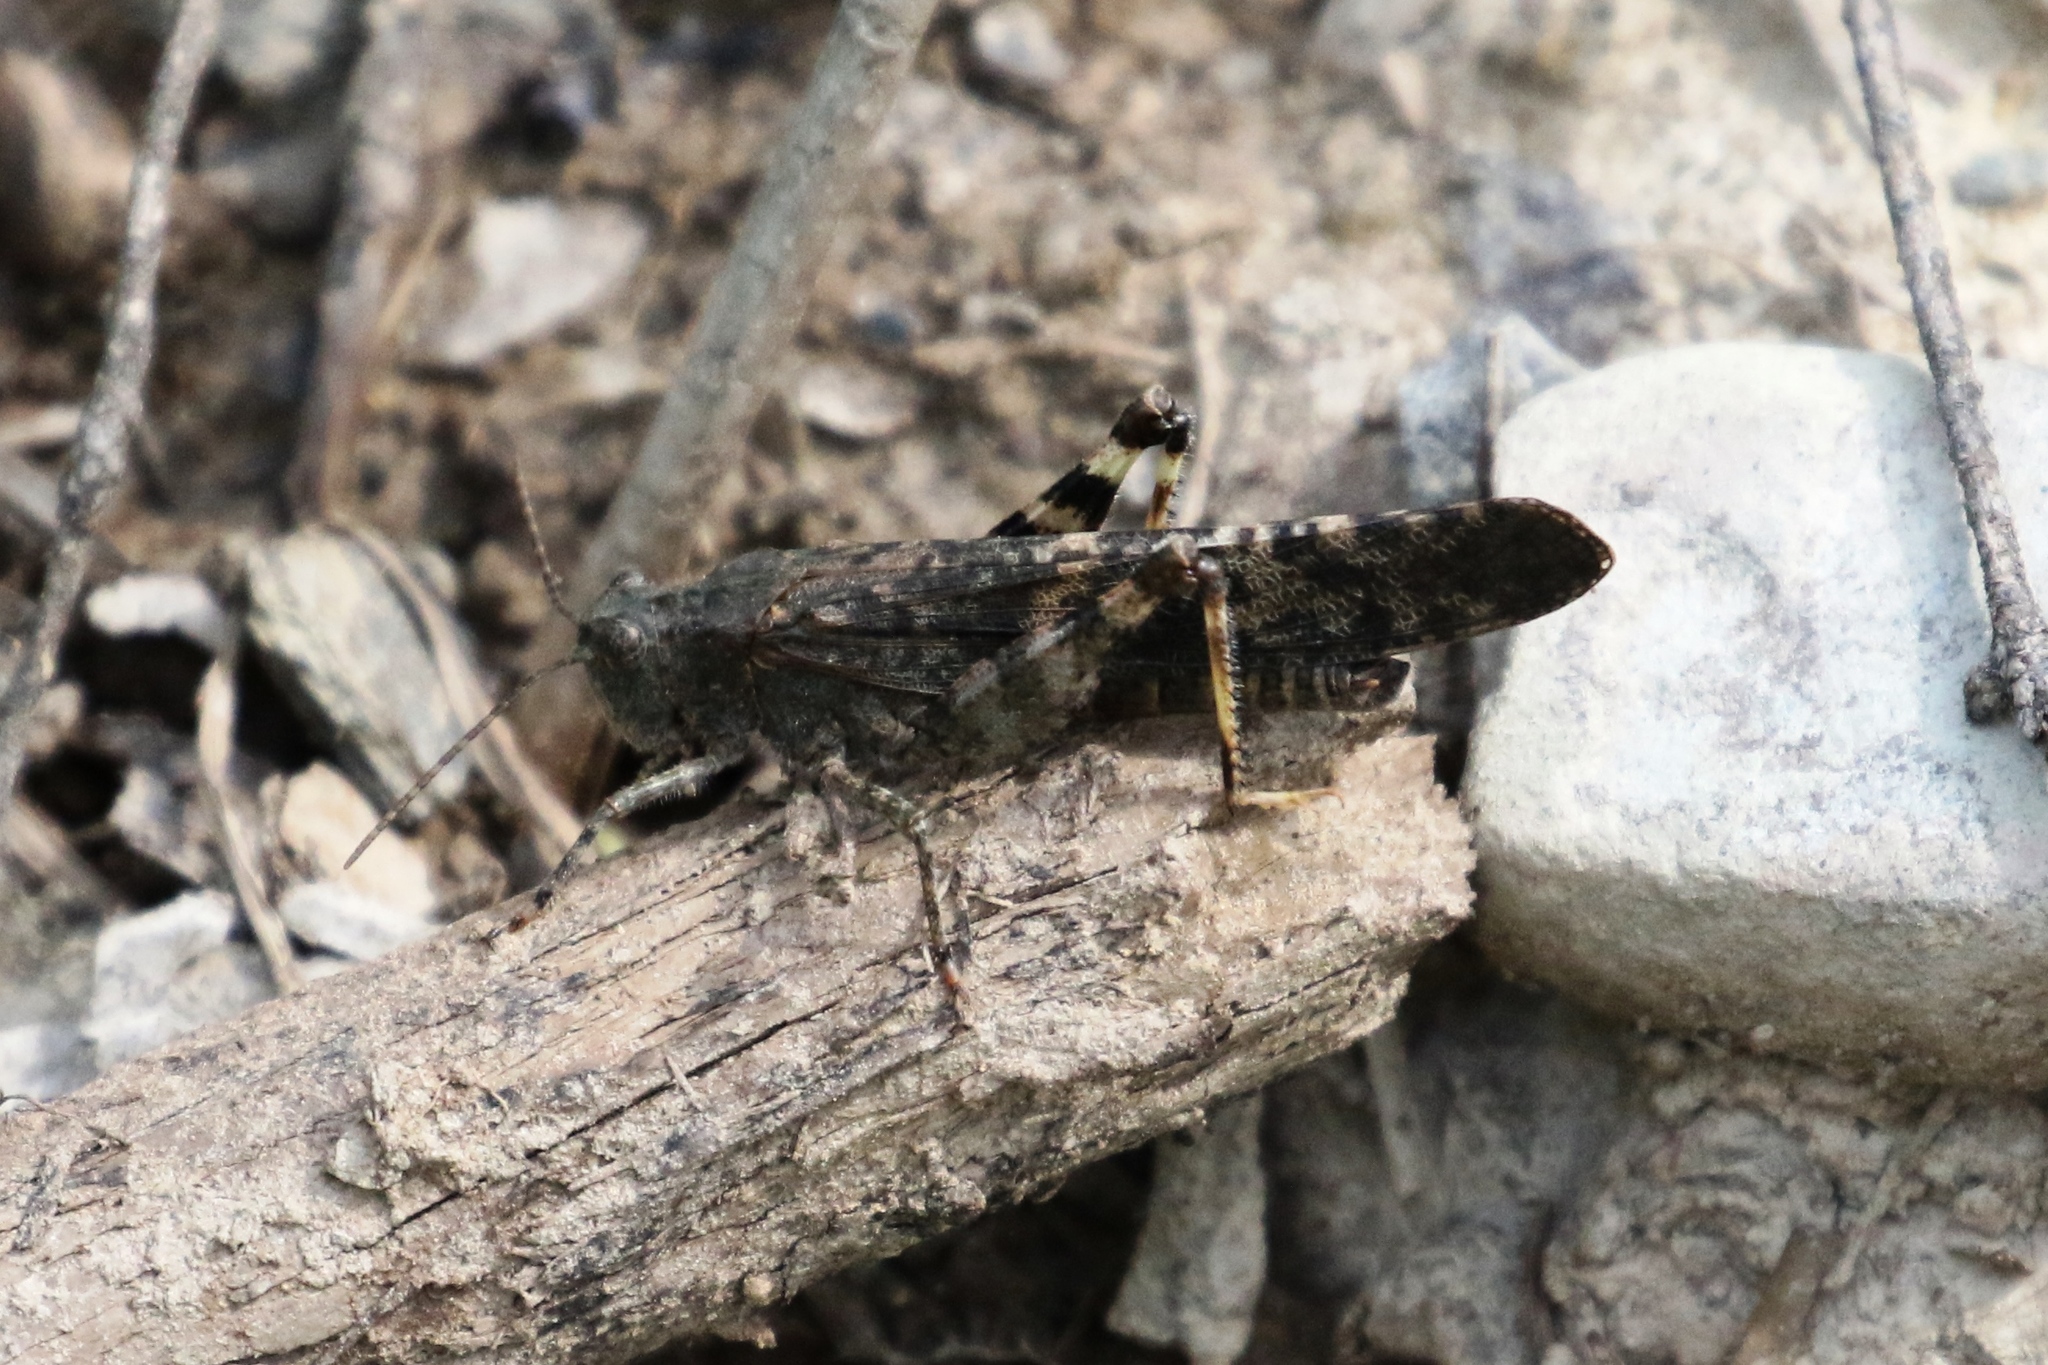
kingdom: Animalia
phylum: Arthropoda
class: Insecta
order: Orthoptera
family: Acrididae
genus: Trimerotropis
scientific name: Trimerotropis verruculata
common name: Crackling forest grasshopper
